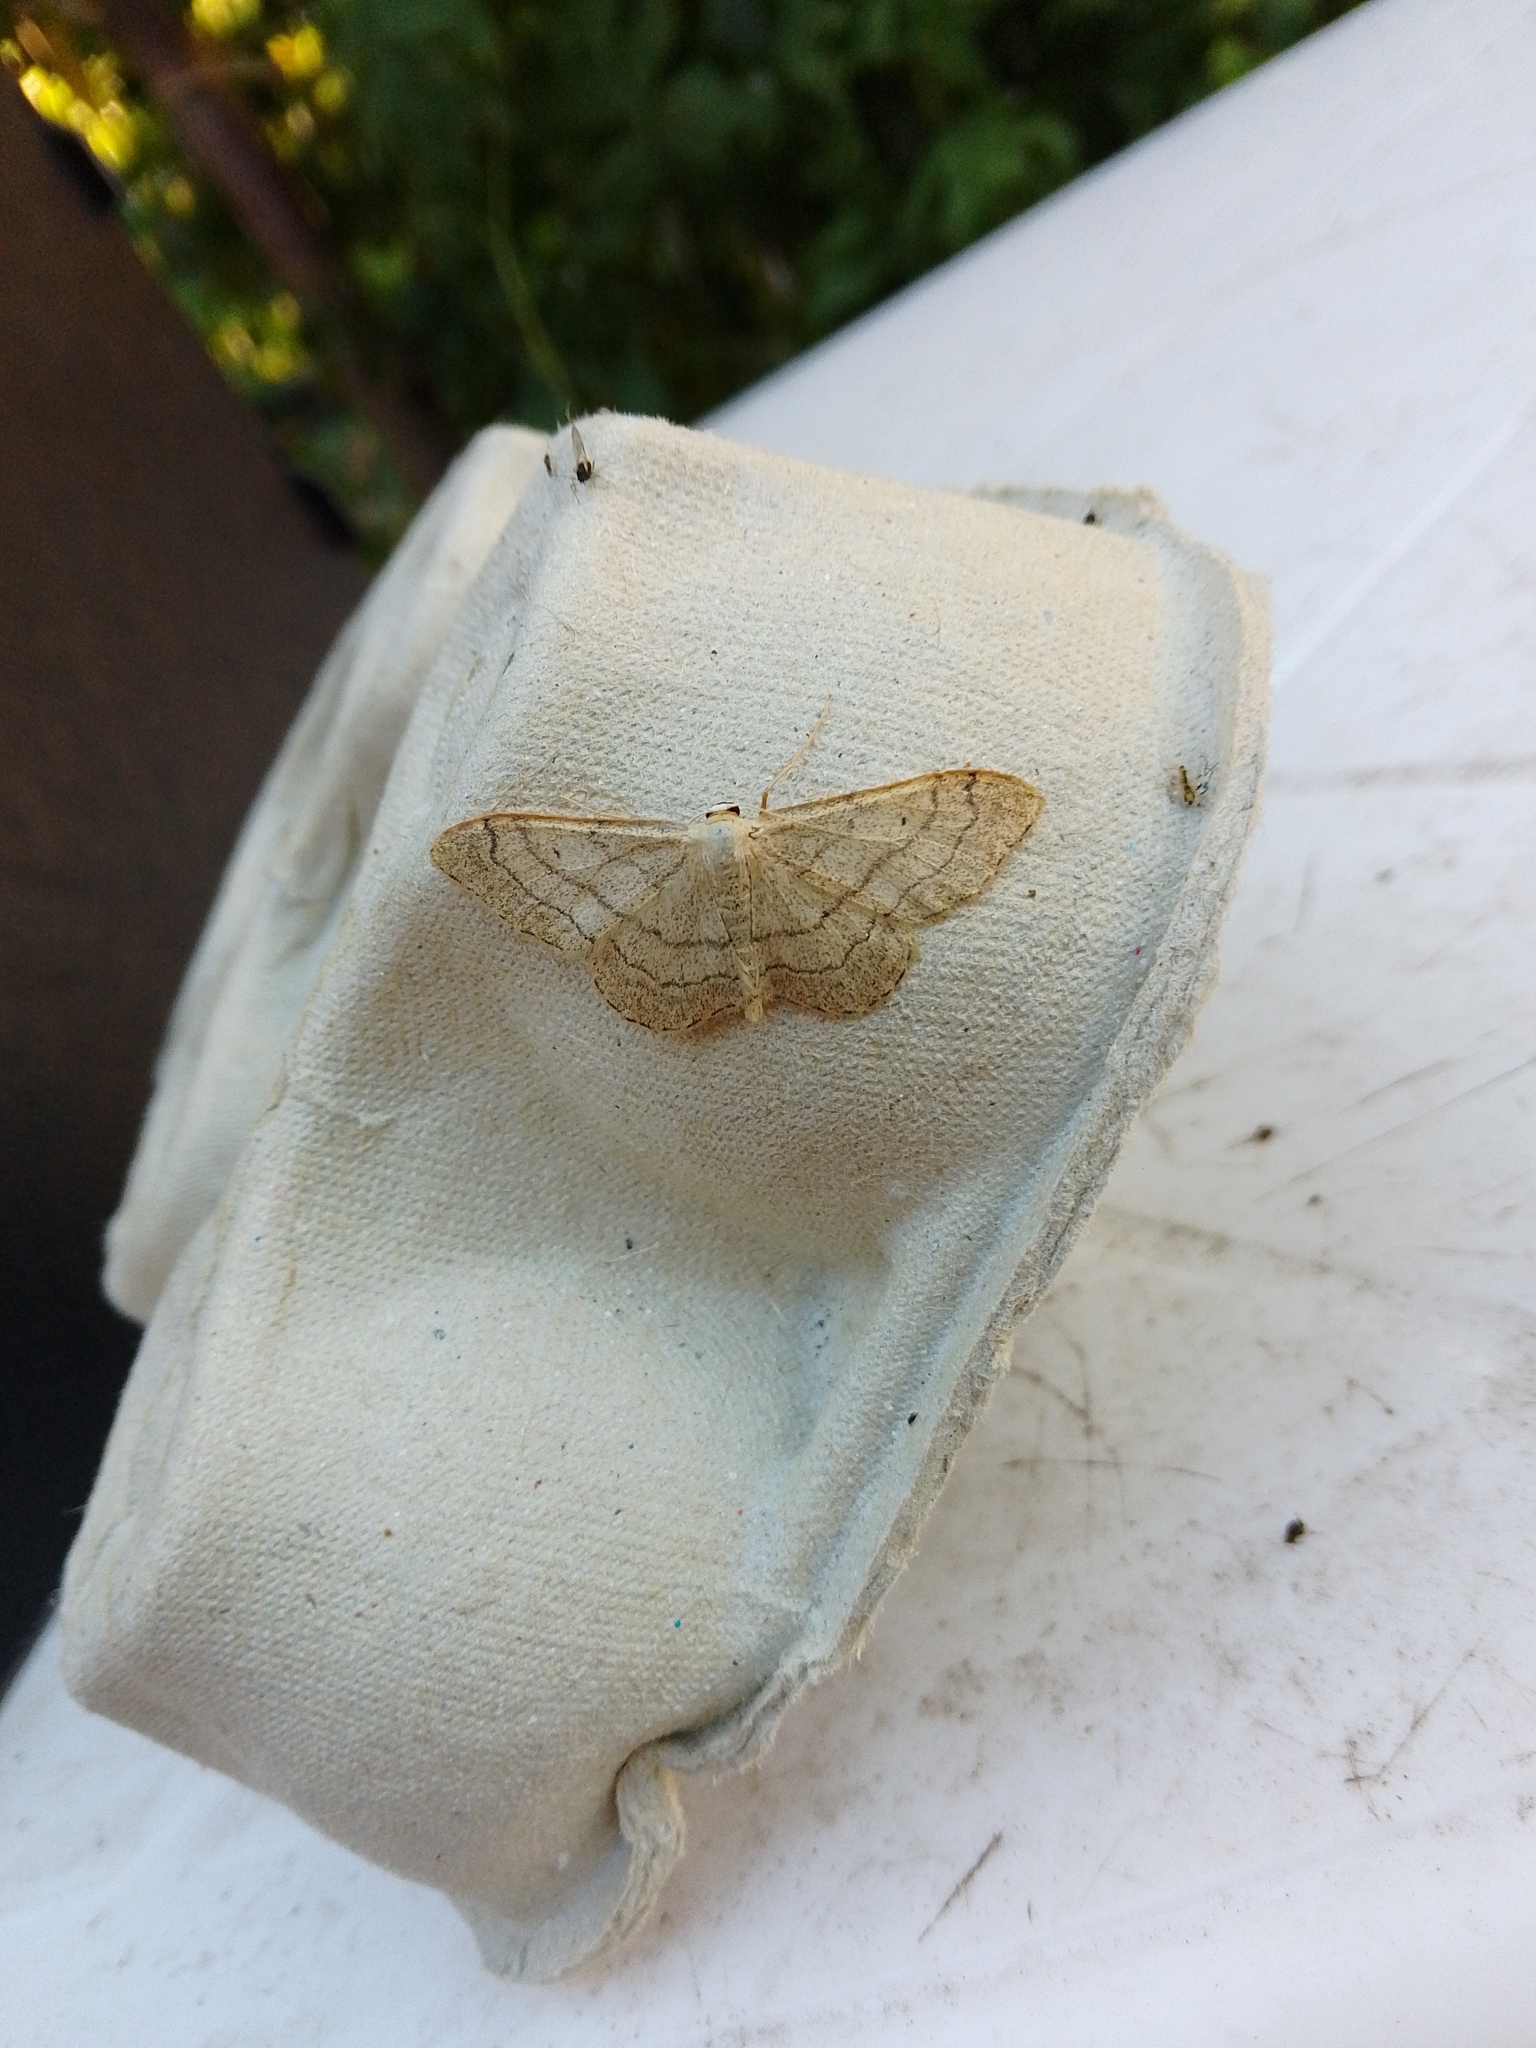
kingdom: Animalia
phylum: Arthropoda
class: Insecta
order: Lepidoptera
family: Geometridae
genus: Idaea
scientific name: Idaea aversata
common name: Riband wave
